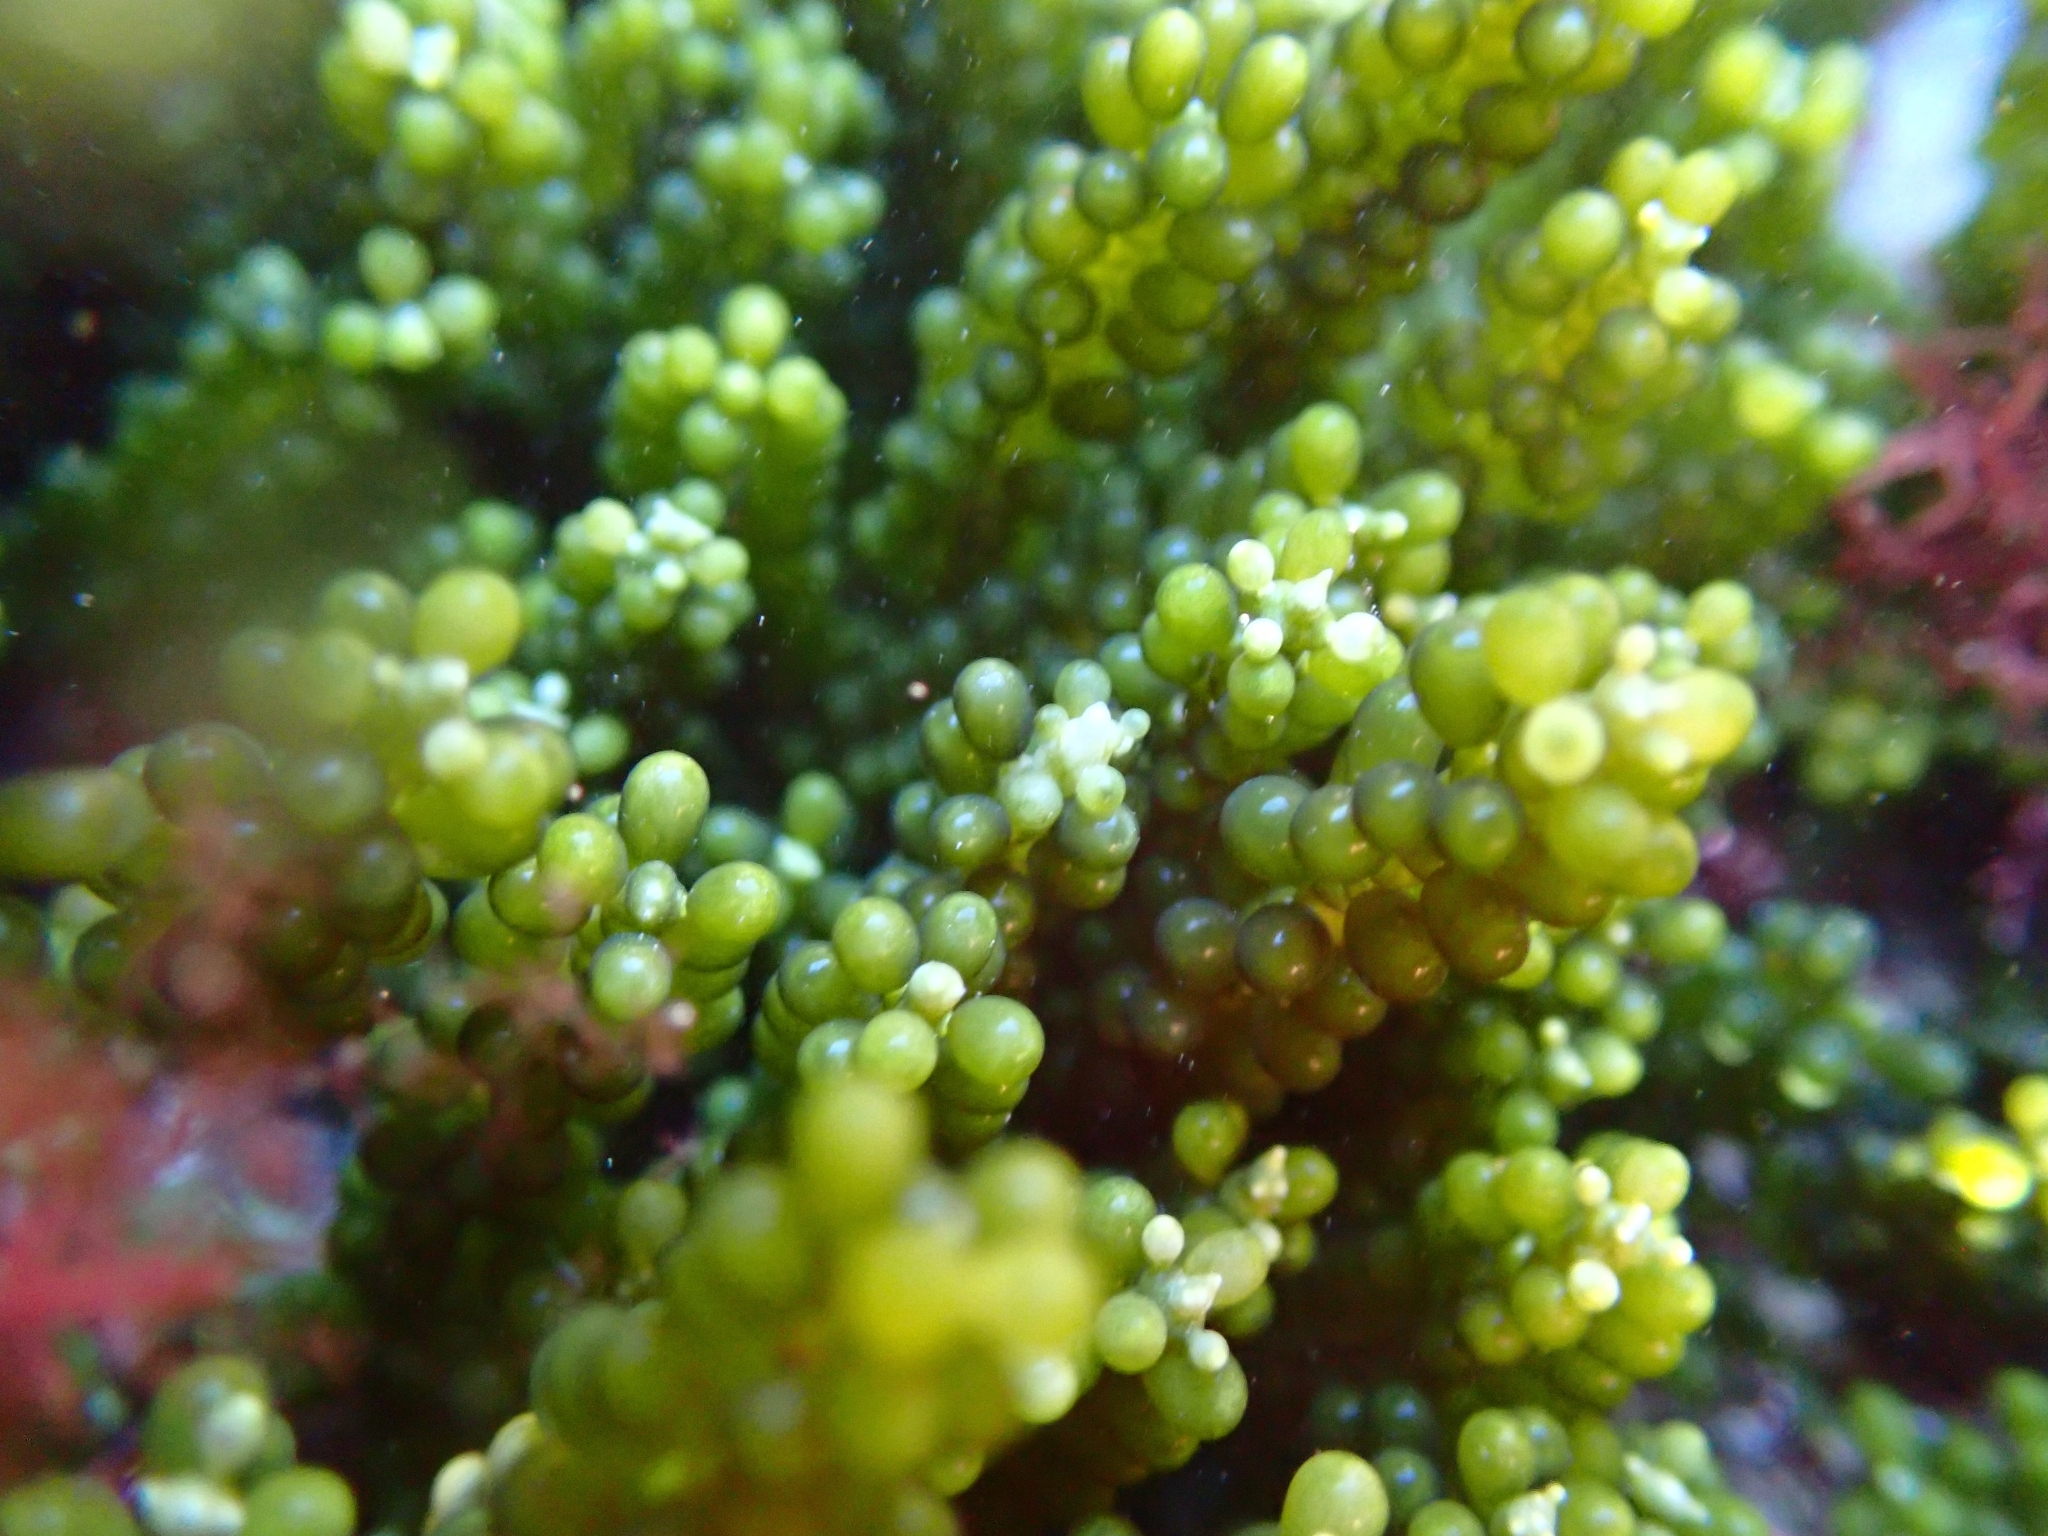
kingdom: Plantae
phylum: Chlorophyta
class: Ulvophyceae
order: Bryopsidales
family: Caulerpaceae
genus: Caulerpa
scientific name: Caulerpa geminata
